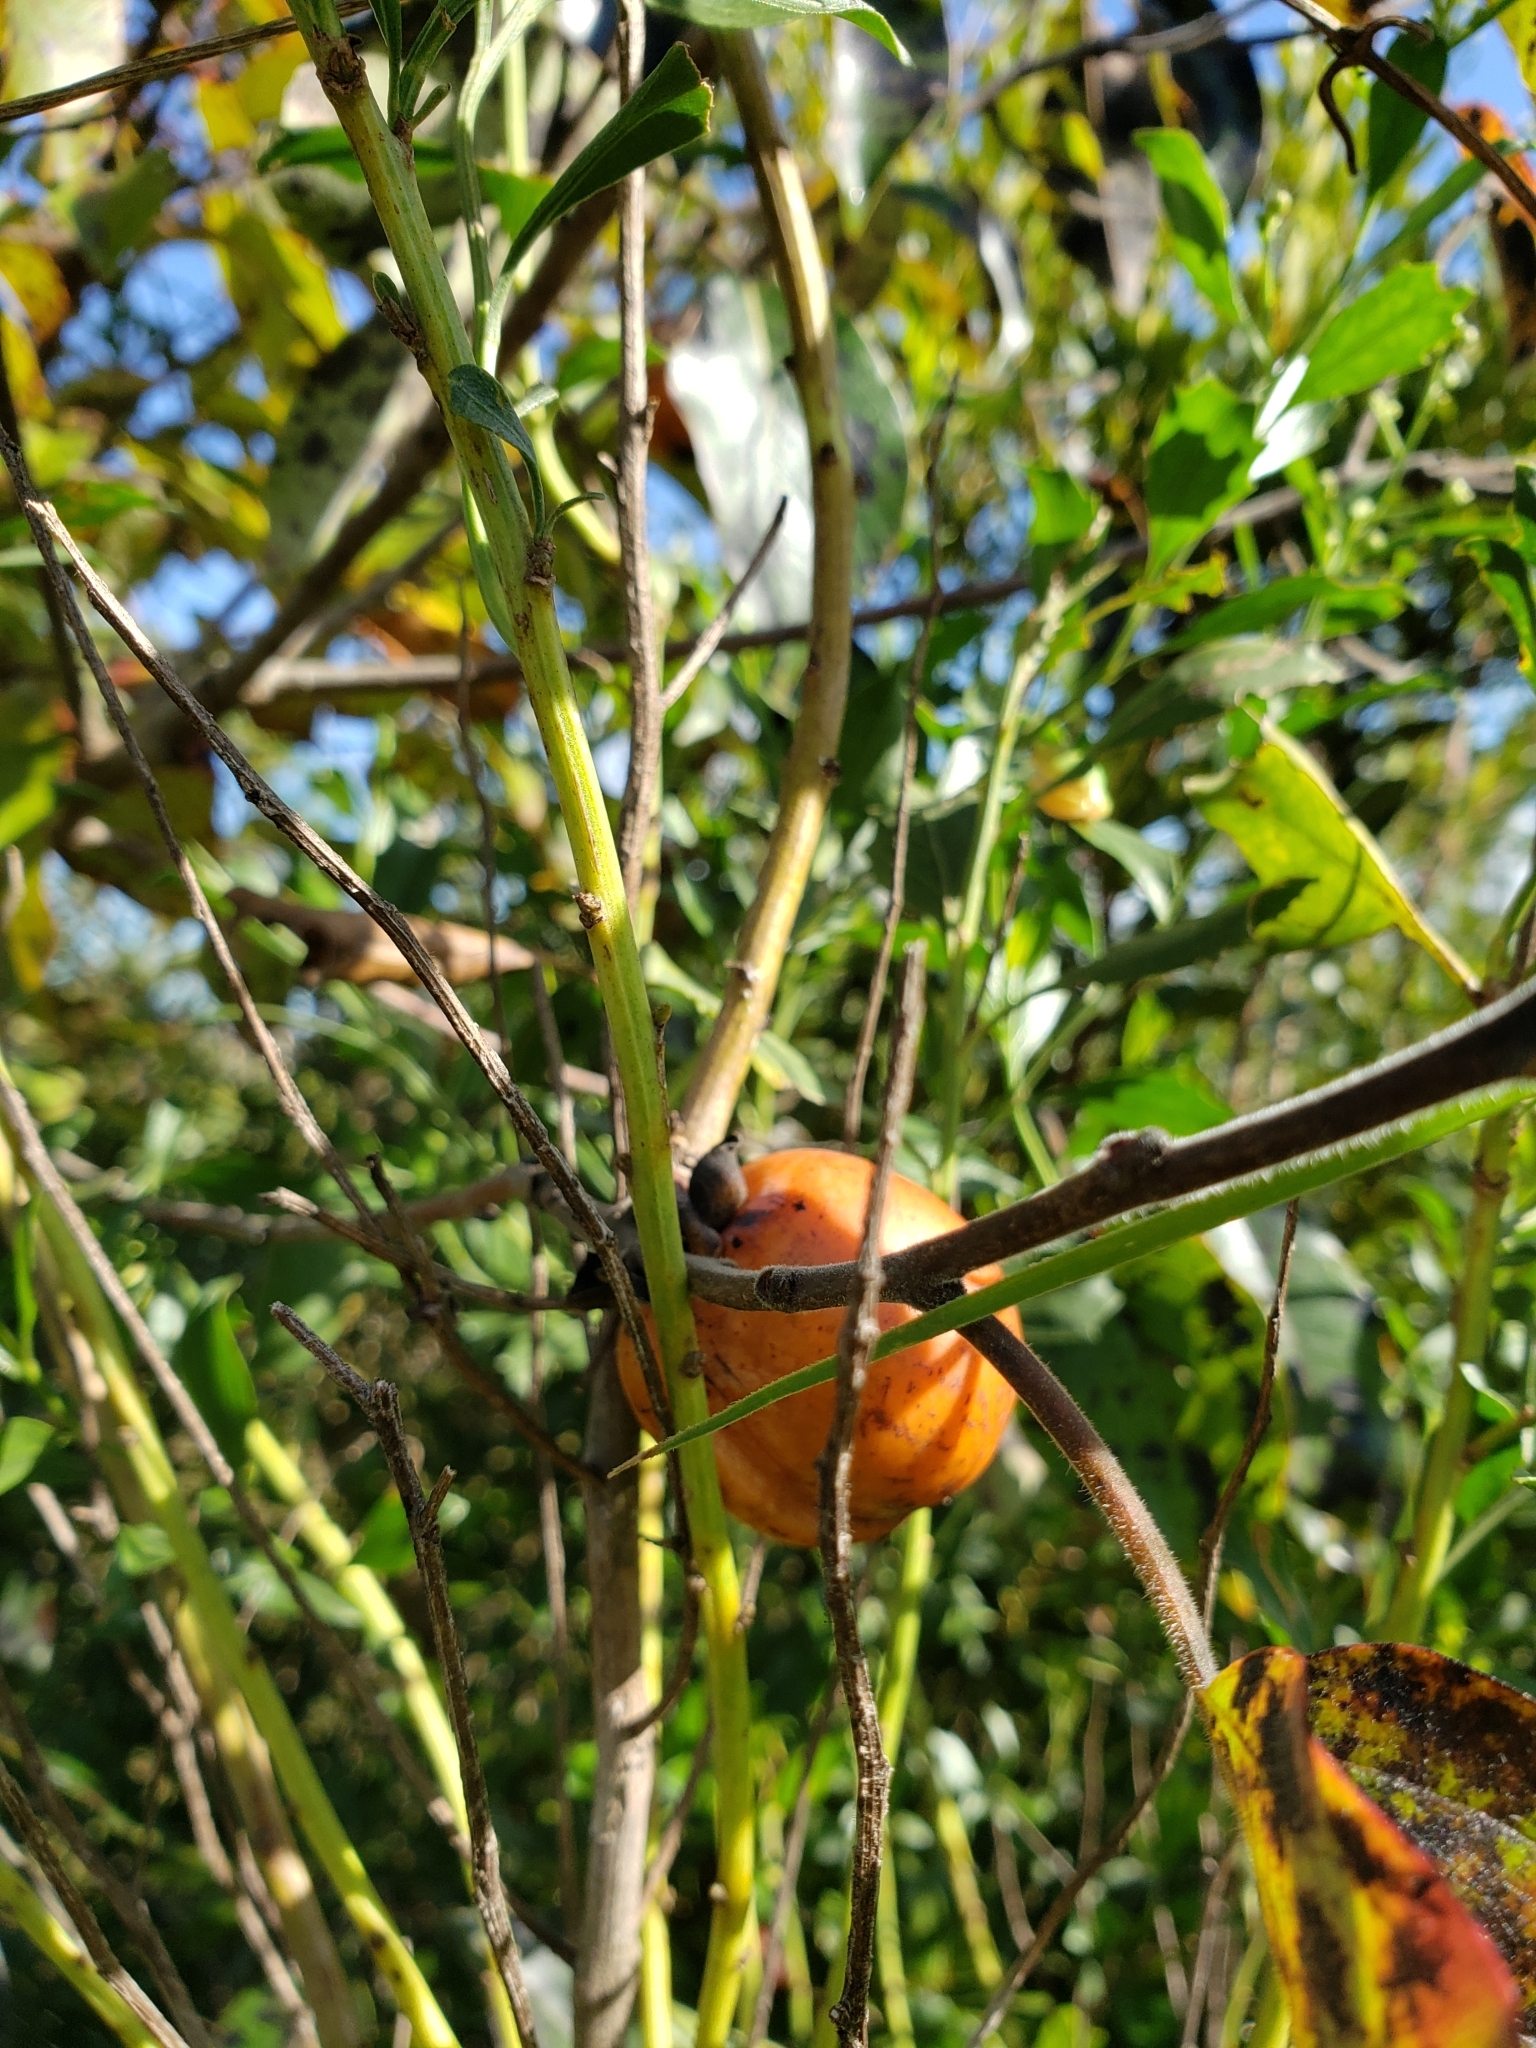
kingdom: Plantae
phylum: Tracheophyta
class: Magnoliopsida
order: Ericales
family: Ebenaceae
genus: Diospyros
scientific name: Diospyros virginiana
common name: Persimmon
